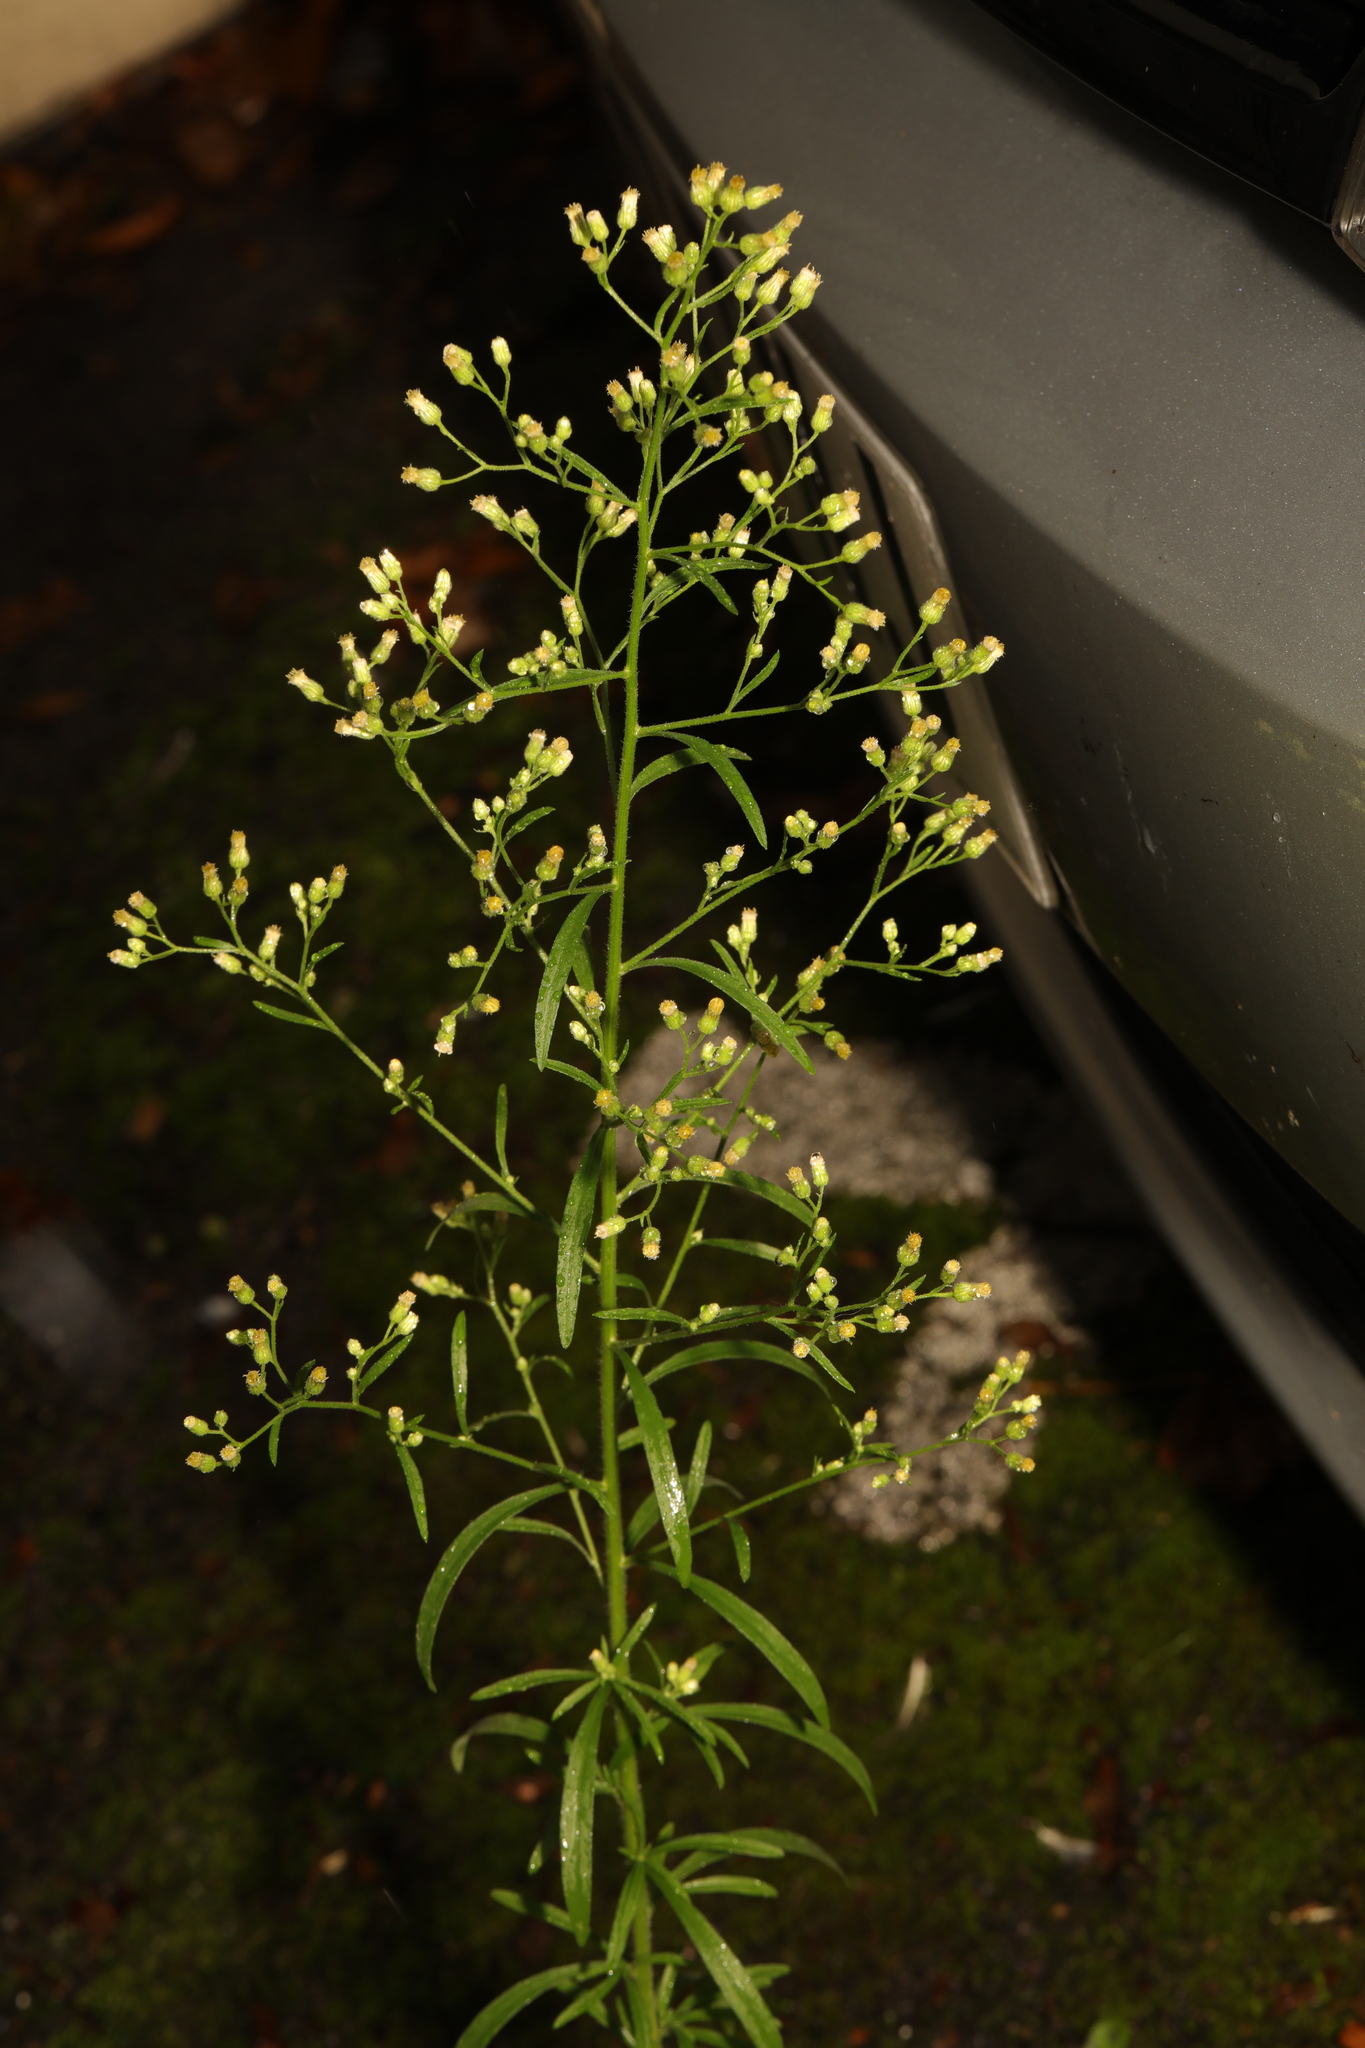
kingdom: Plantae
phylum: Tracheophyta
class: Magnoliopsida
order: Asterales
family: Asteraceae
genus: Erigeron
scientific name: Erigeron canadensis
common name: Canadian fleabane
